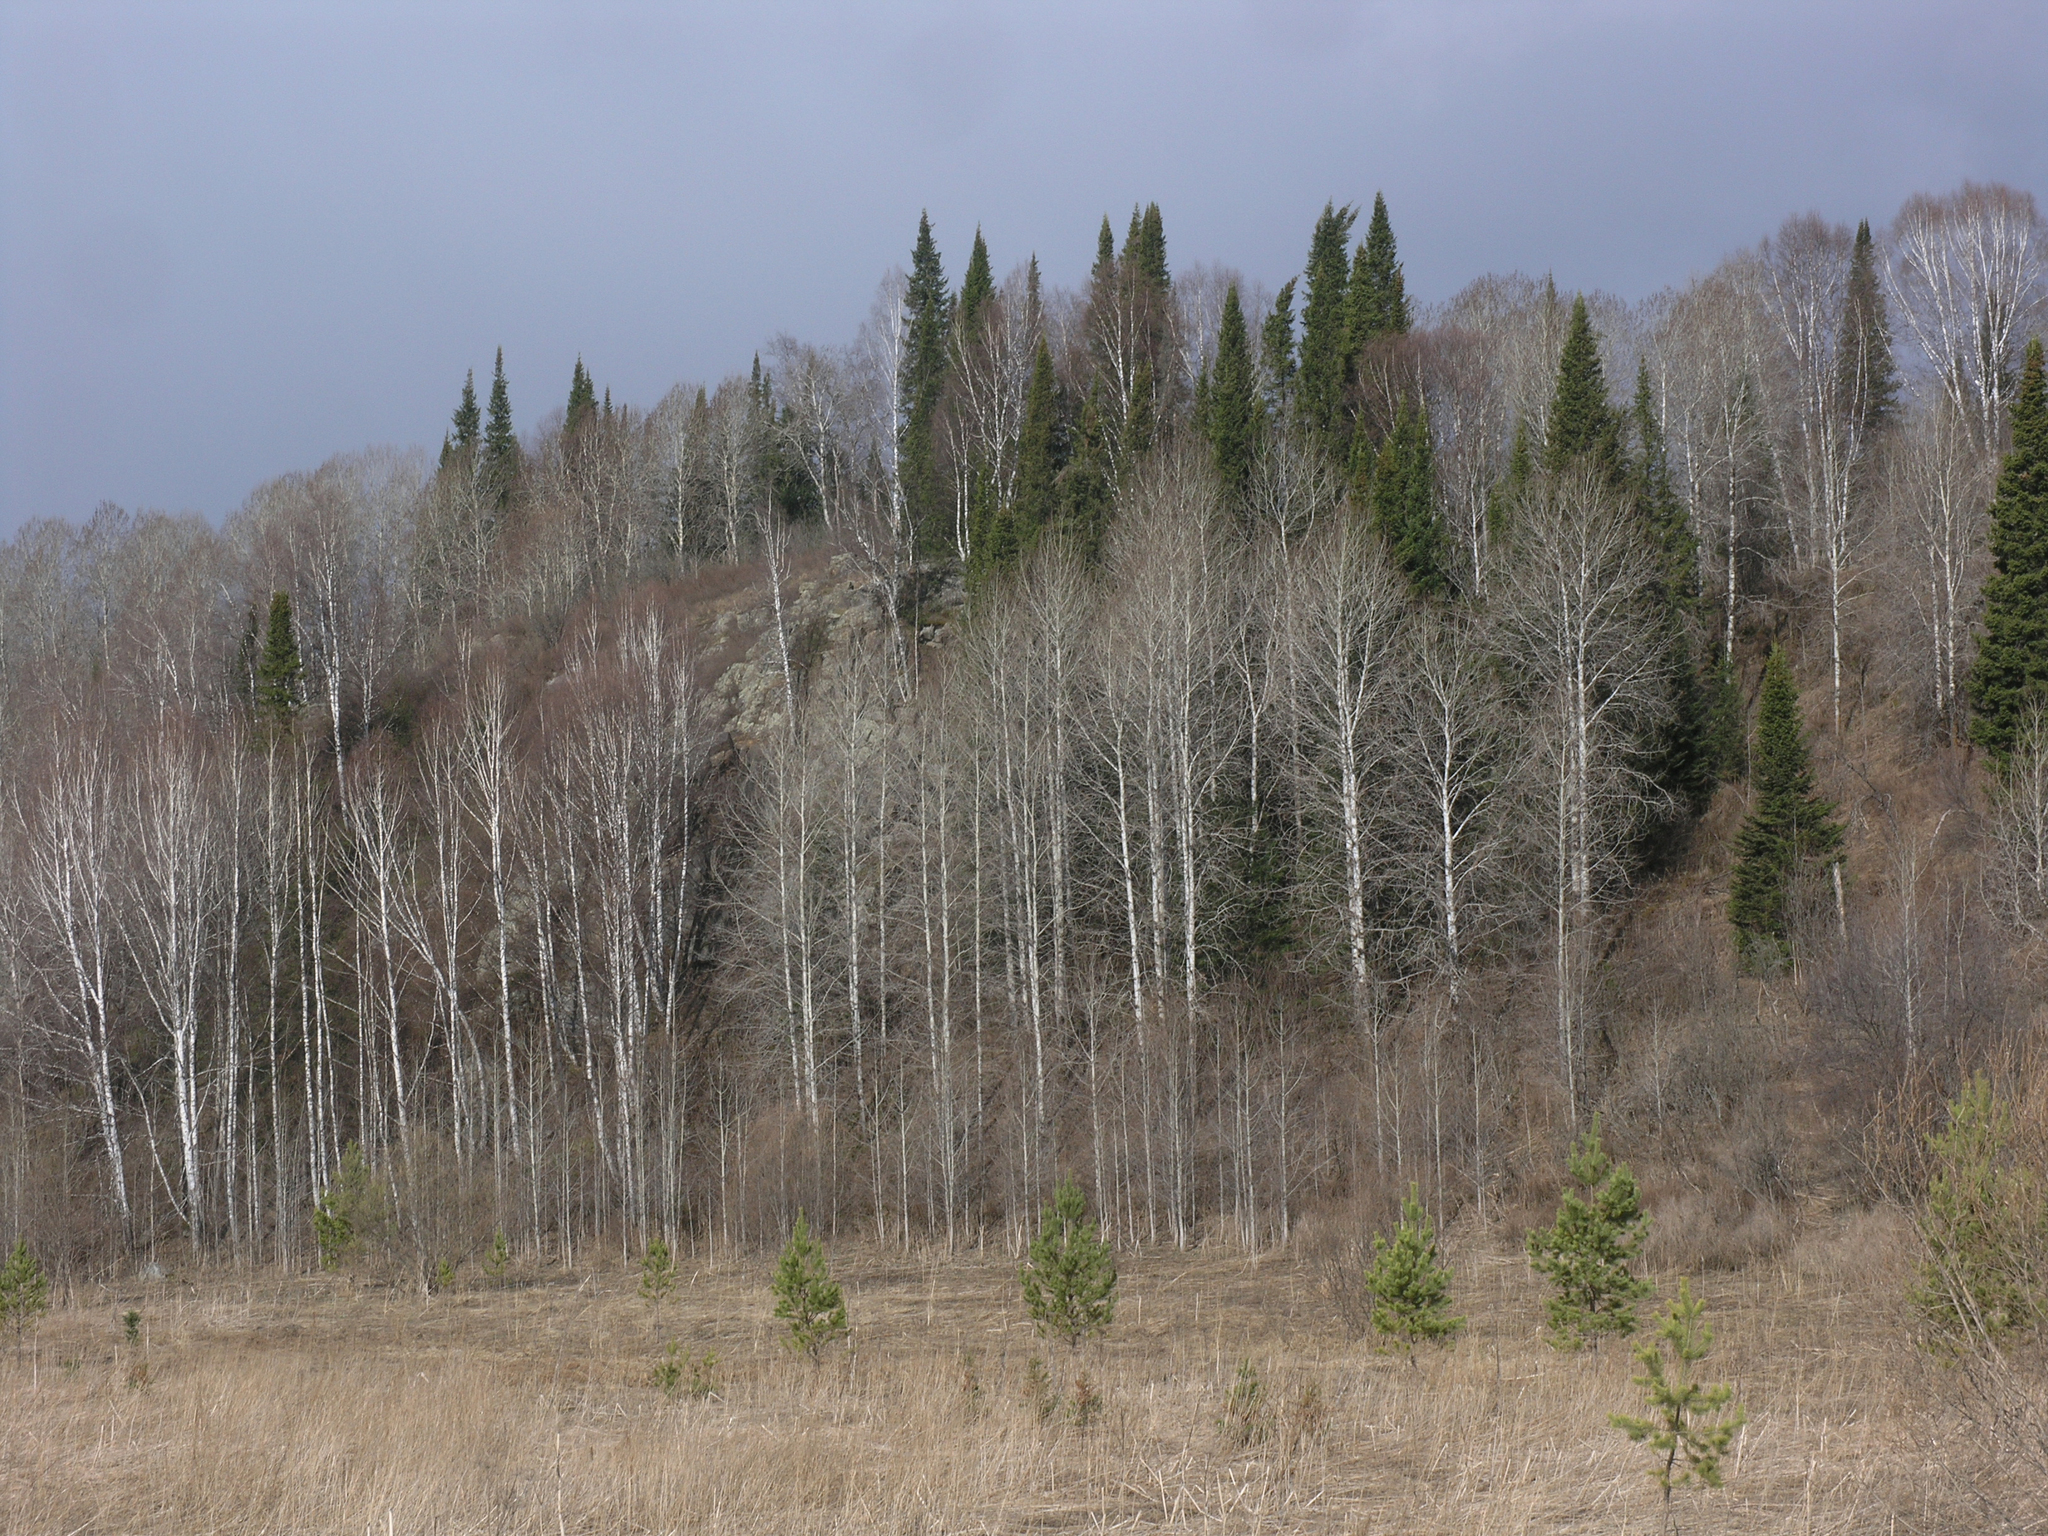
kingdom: Plantae
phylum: Tracheophyta
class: Pinopsida
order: Pinales
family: Pinaceae
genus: Abies
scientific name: Abies sibirica
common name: Siberian fir
